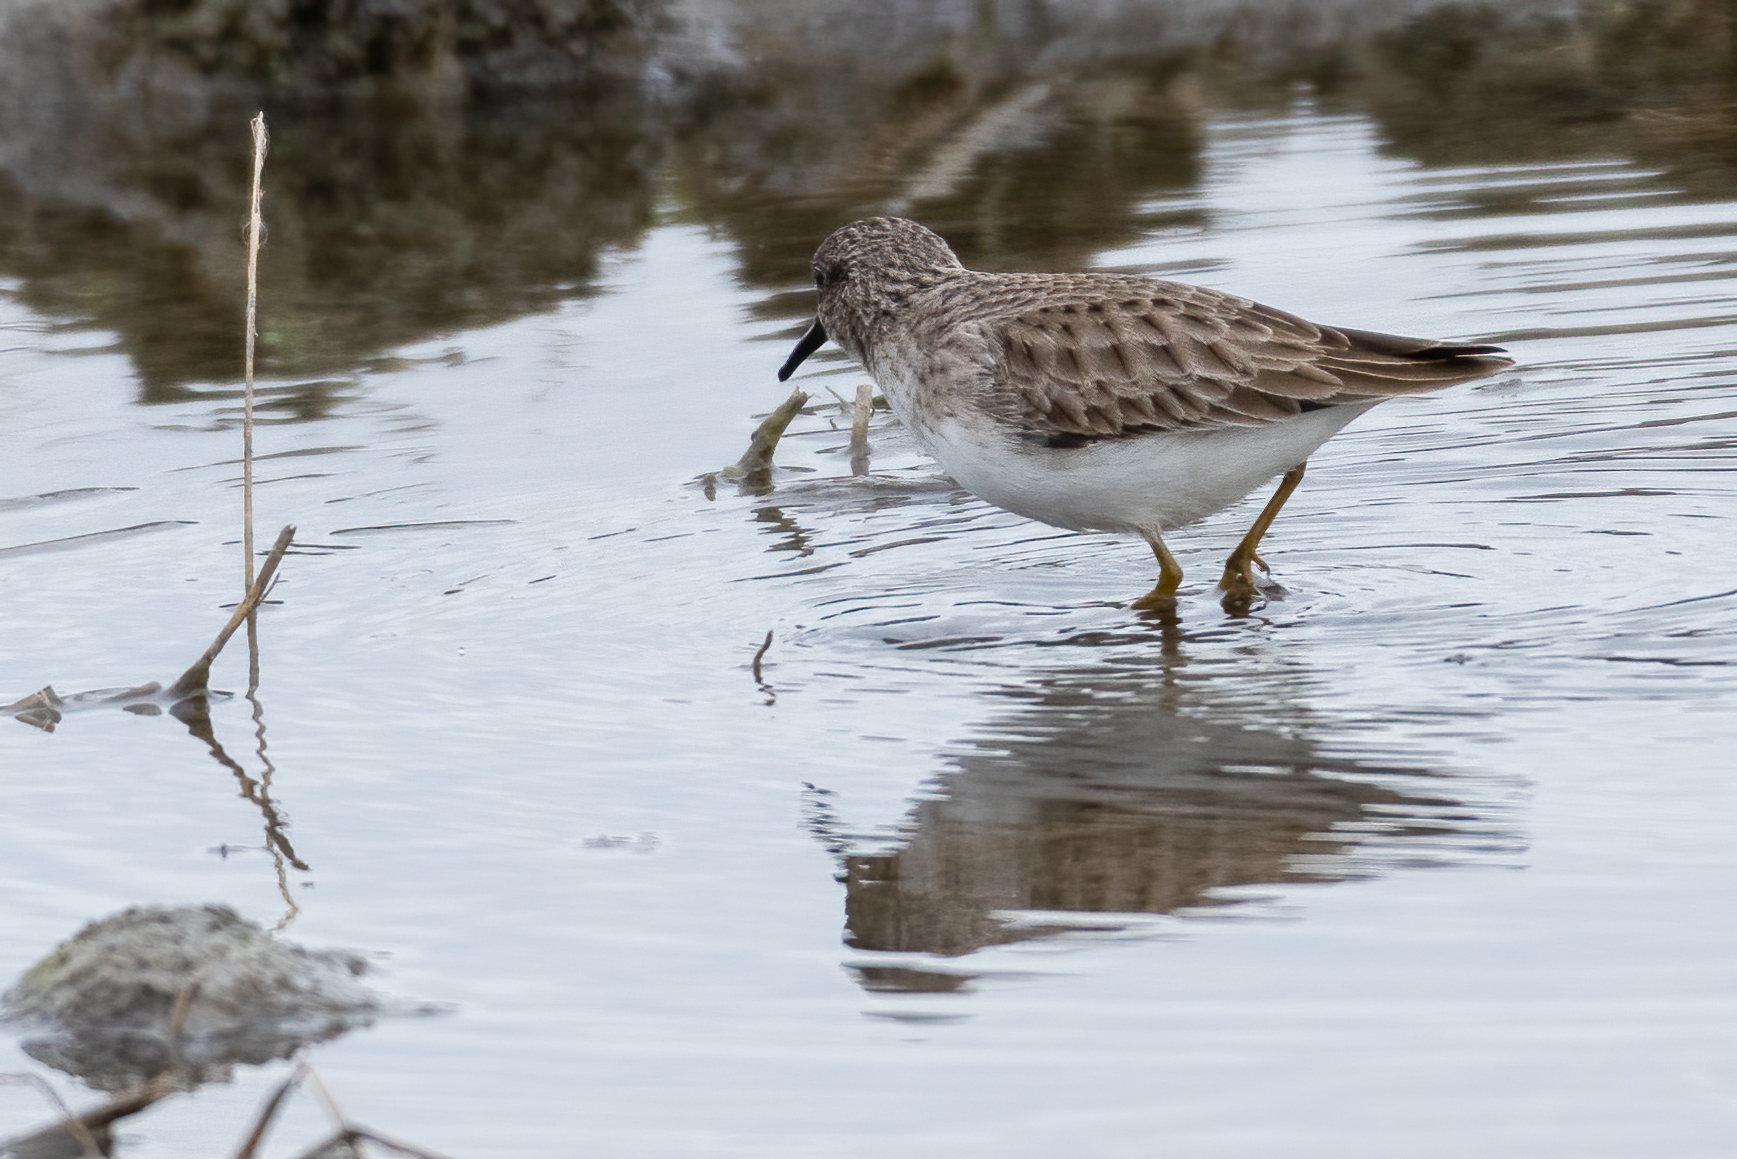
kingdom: Animalia
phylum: Chordata
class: Aves
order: Charadriiformes
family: Scolopacidae
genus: Calidris
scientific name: Calidris minutilla
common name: Least sandpiper
